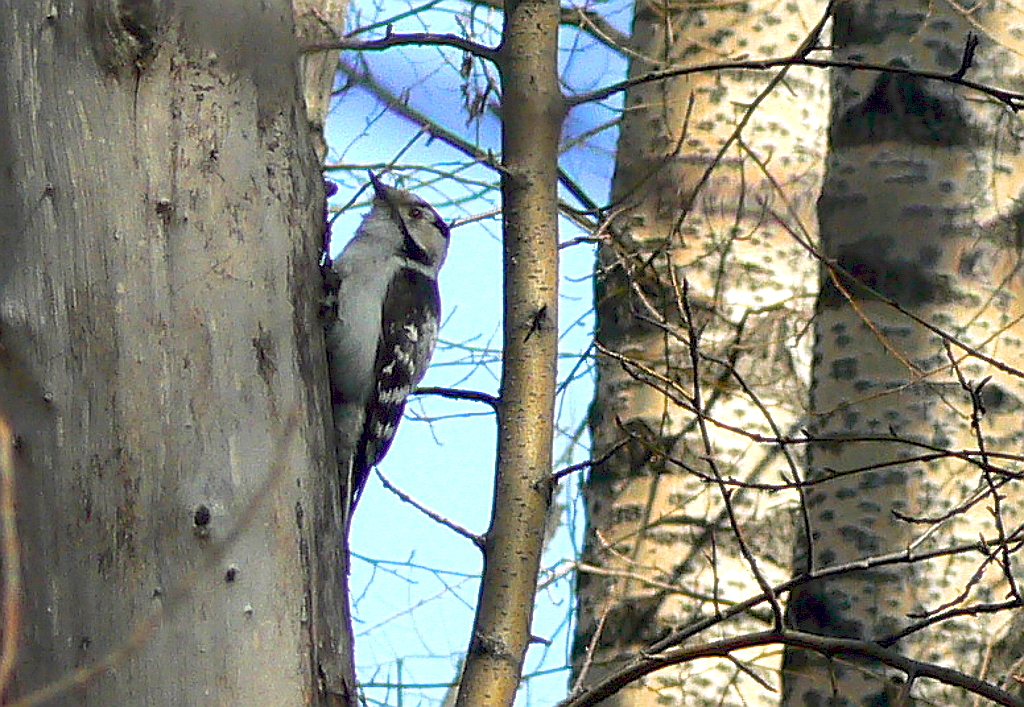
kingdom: Animalia
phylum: Chordata
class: Aves
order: Piciformes
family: Picidae
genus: Dryobates
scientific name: Dryobates minor
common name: Lesser spotted woodpecker
